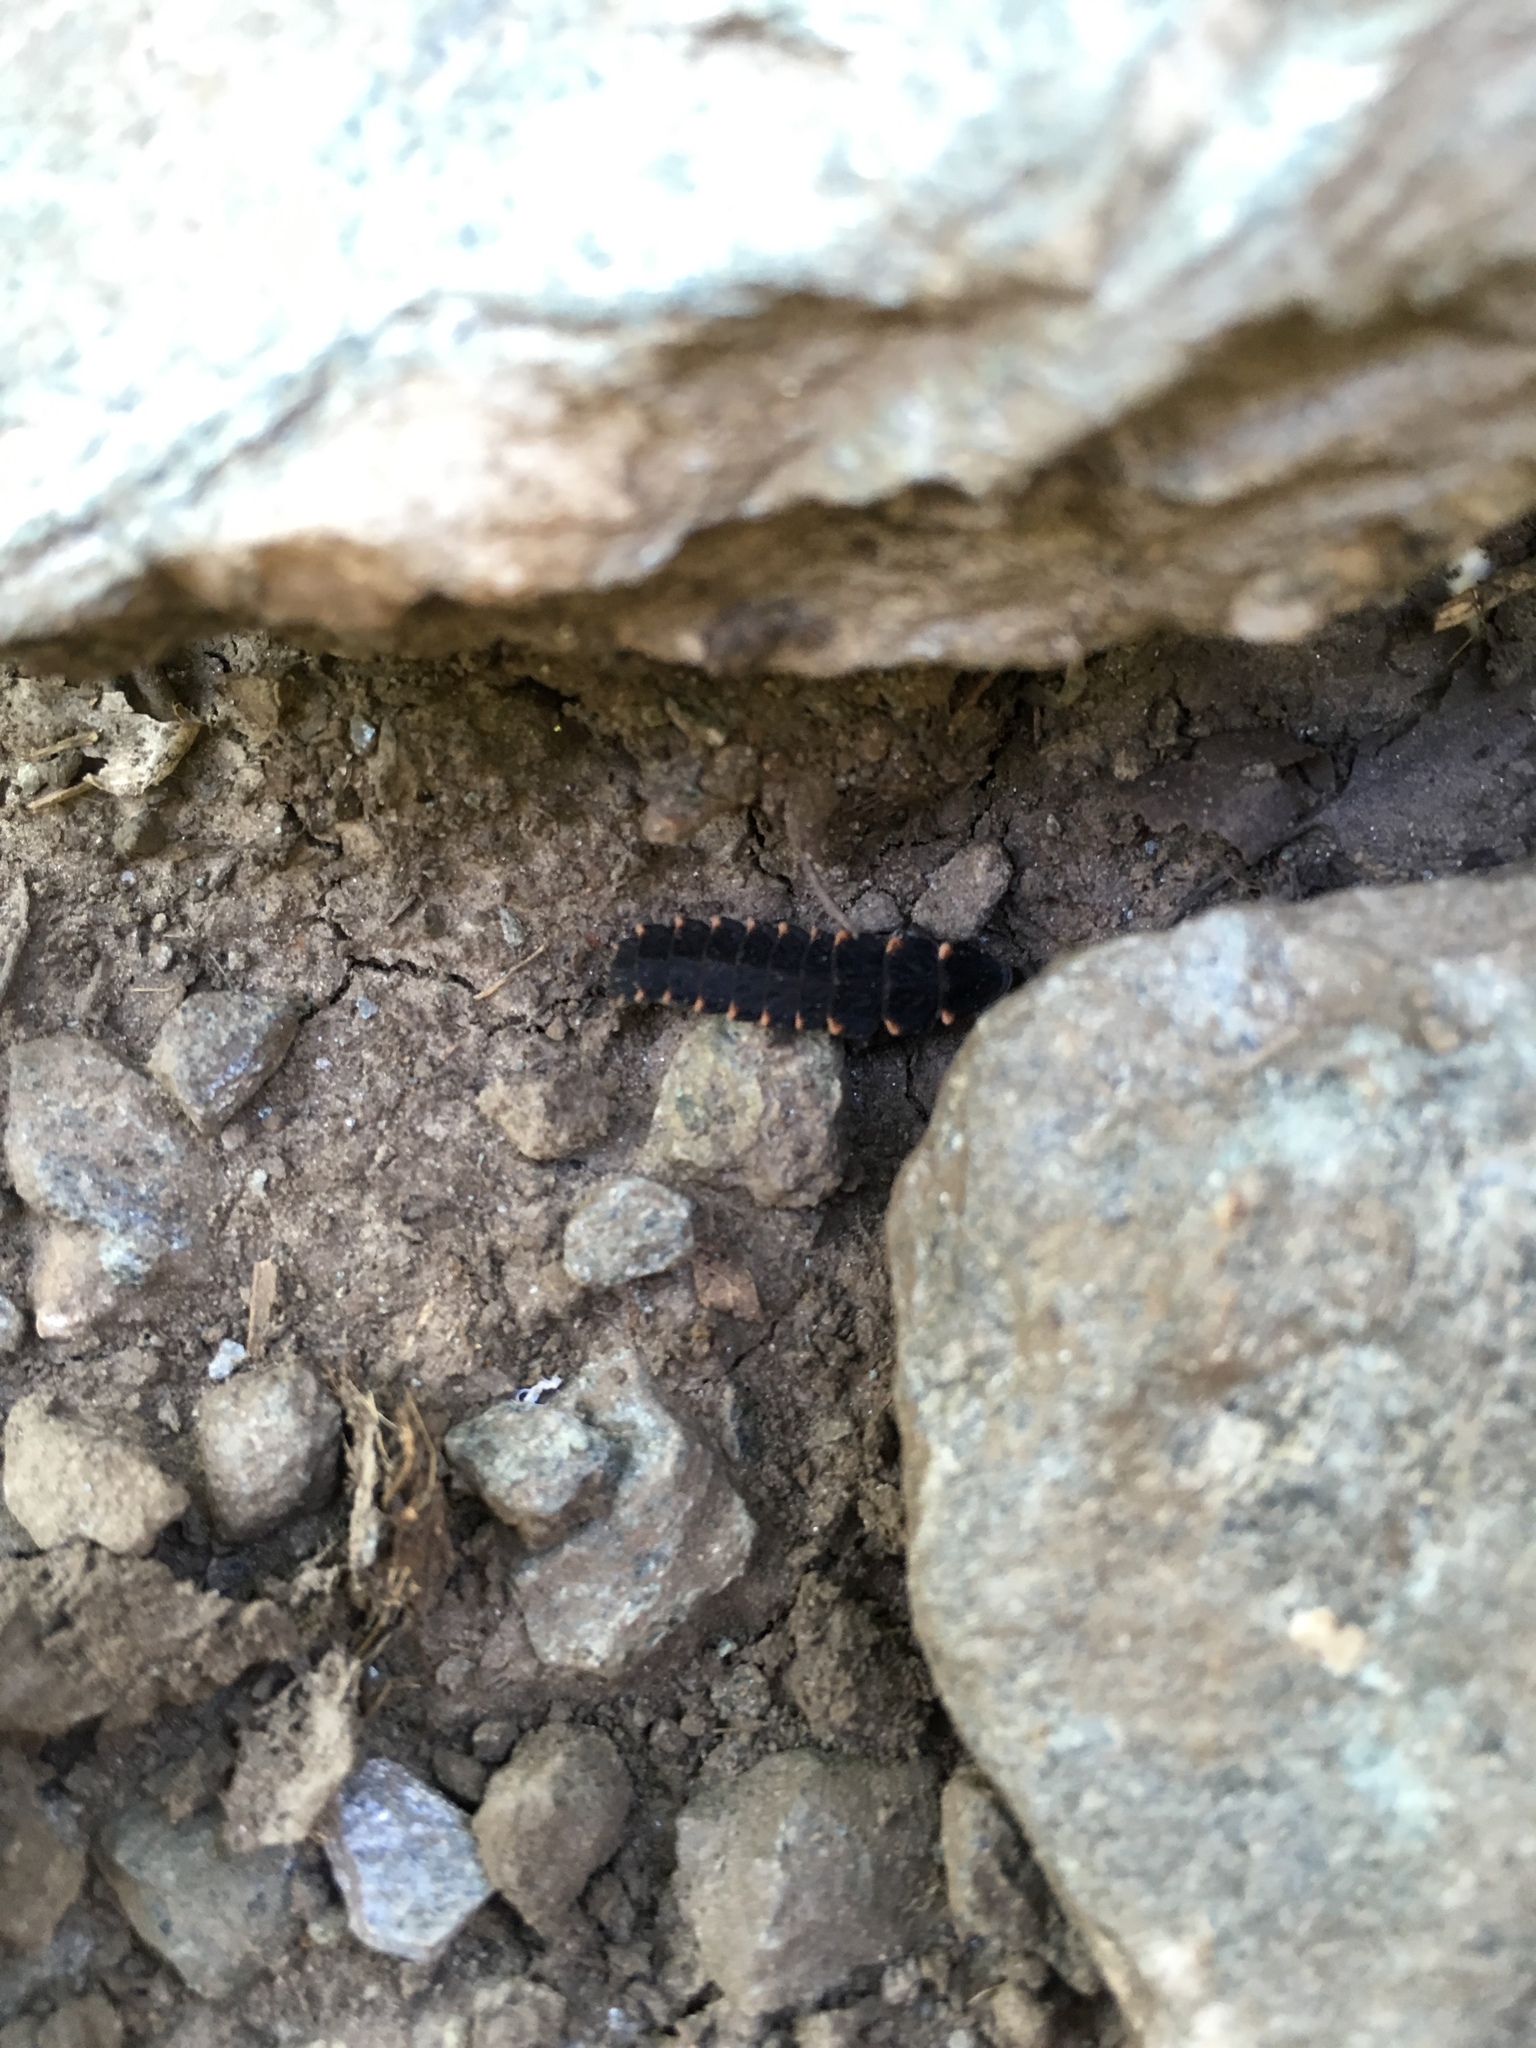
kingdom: Animalia
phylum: Arthropoda
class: Insecta
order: Coleoptera
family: Lampyridae
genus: Lampyris
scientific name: Lampyris noctiluca
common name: Glow-worm
